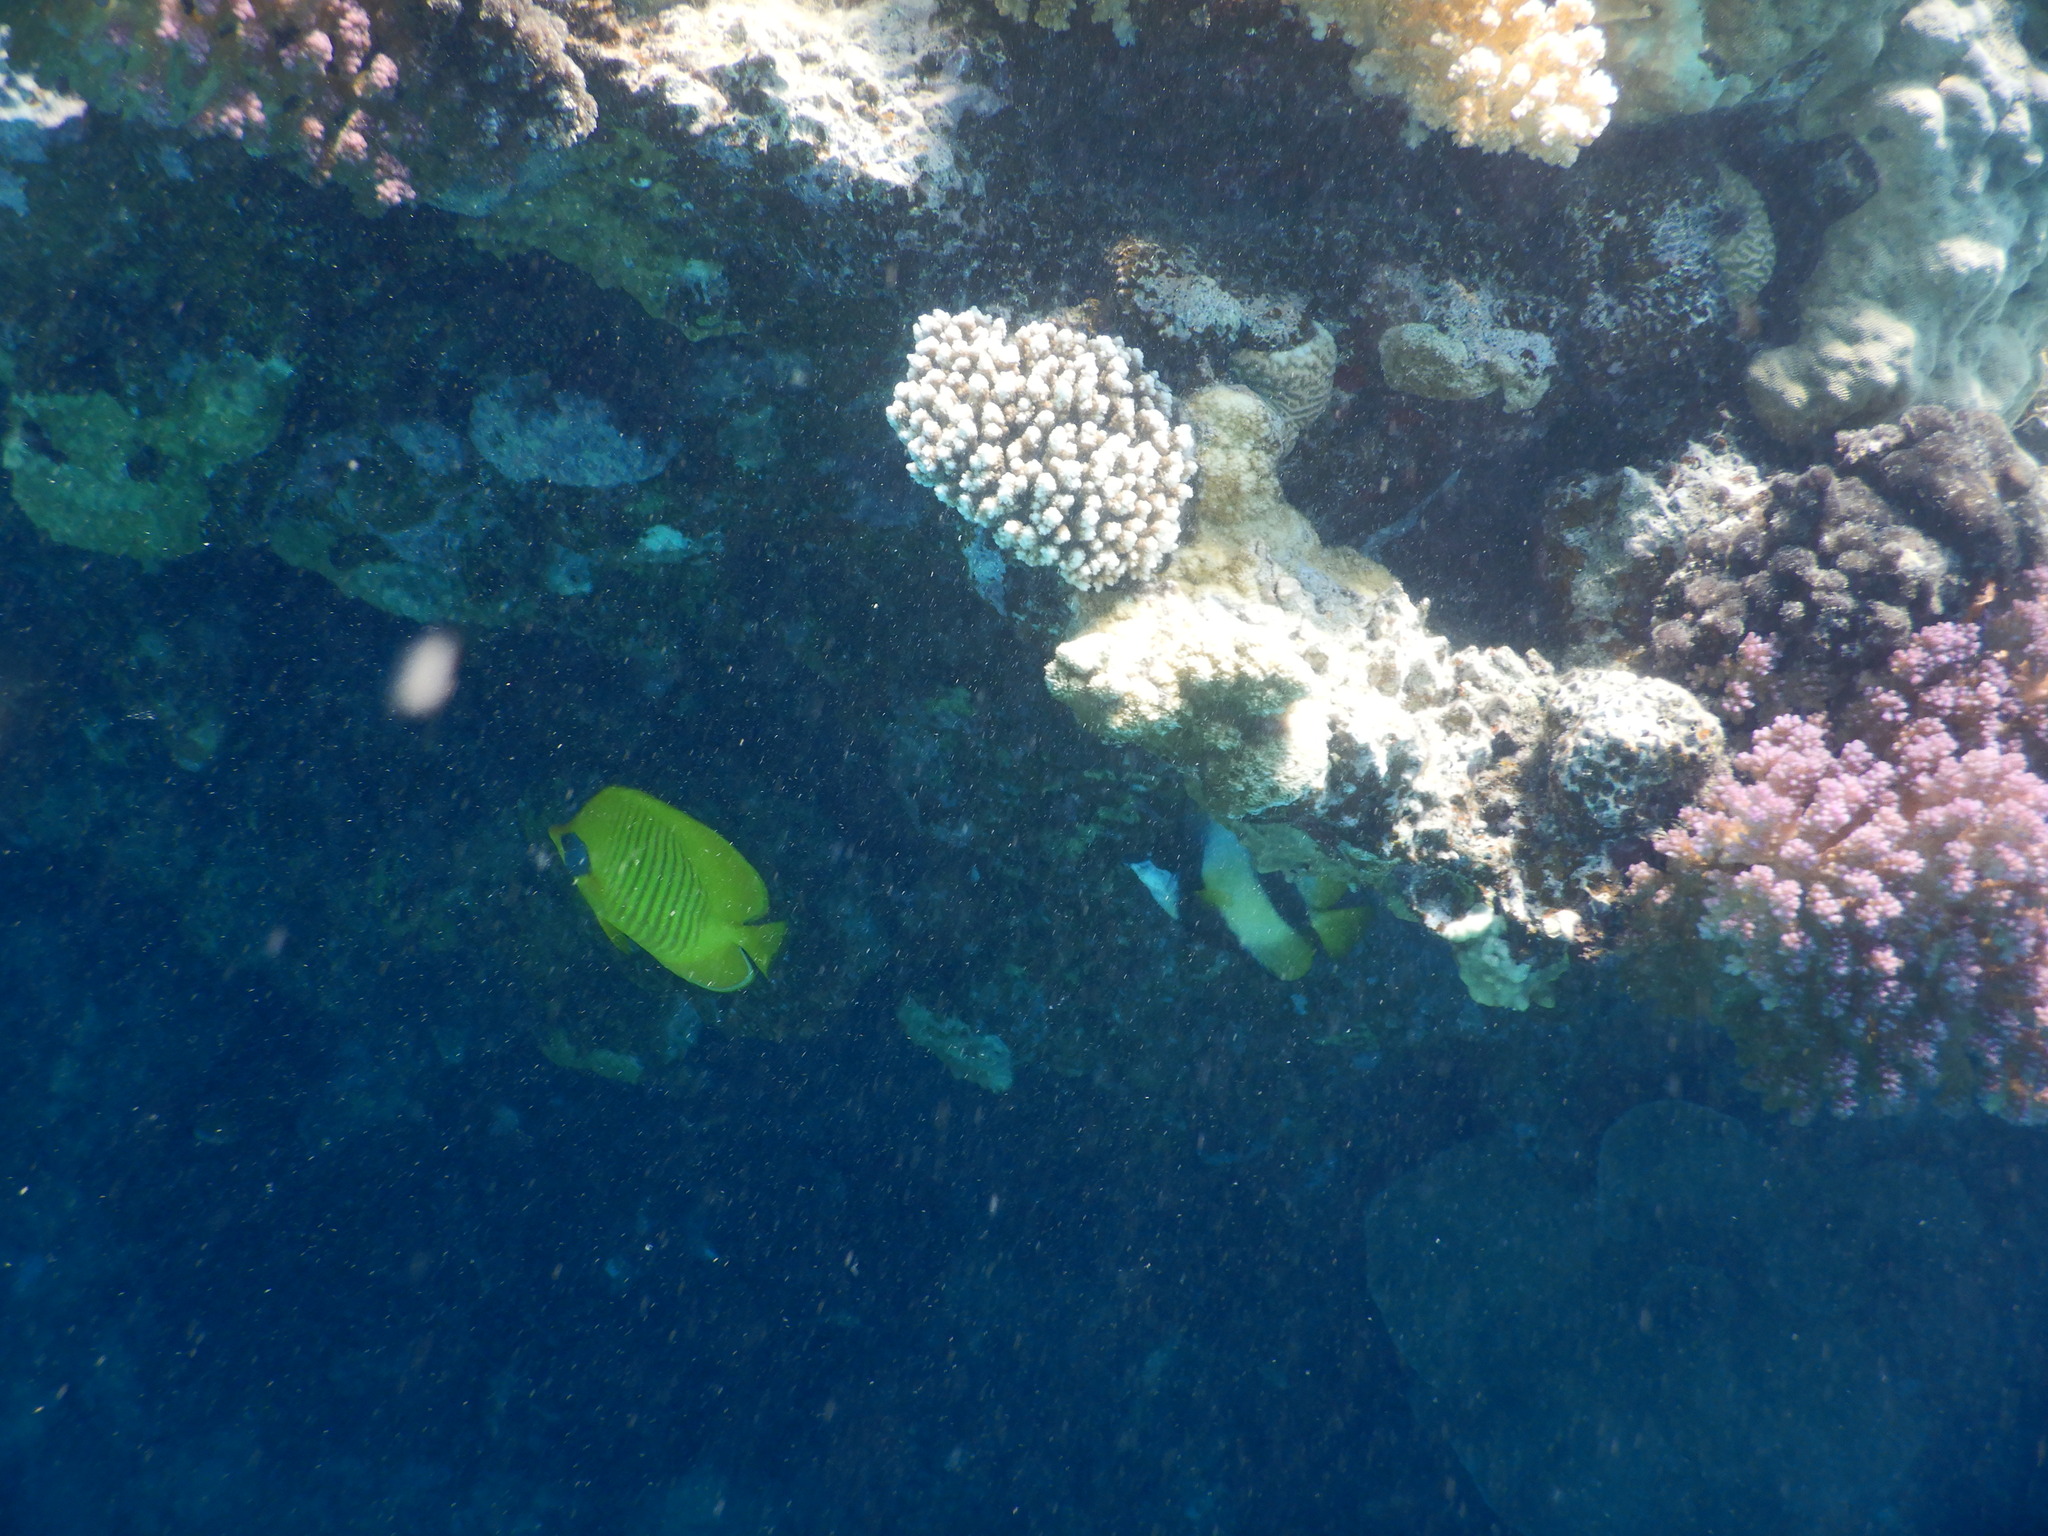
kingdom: Animalia
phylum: Chordata
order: Perciformes
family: Chaetodontidae
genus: Chaetodon
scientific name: Chaetodon semilarvatus
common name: Golden butterflyfish
